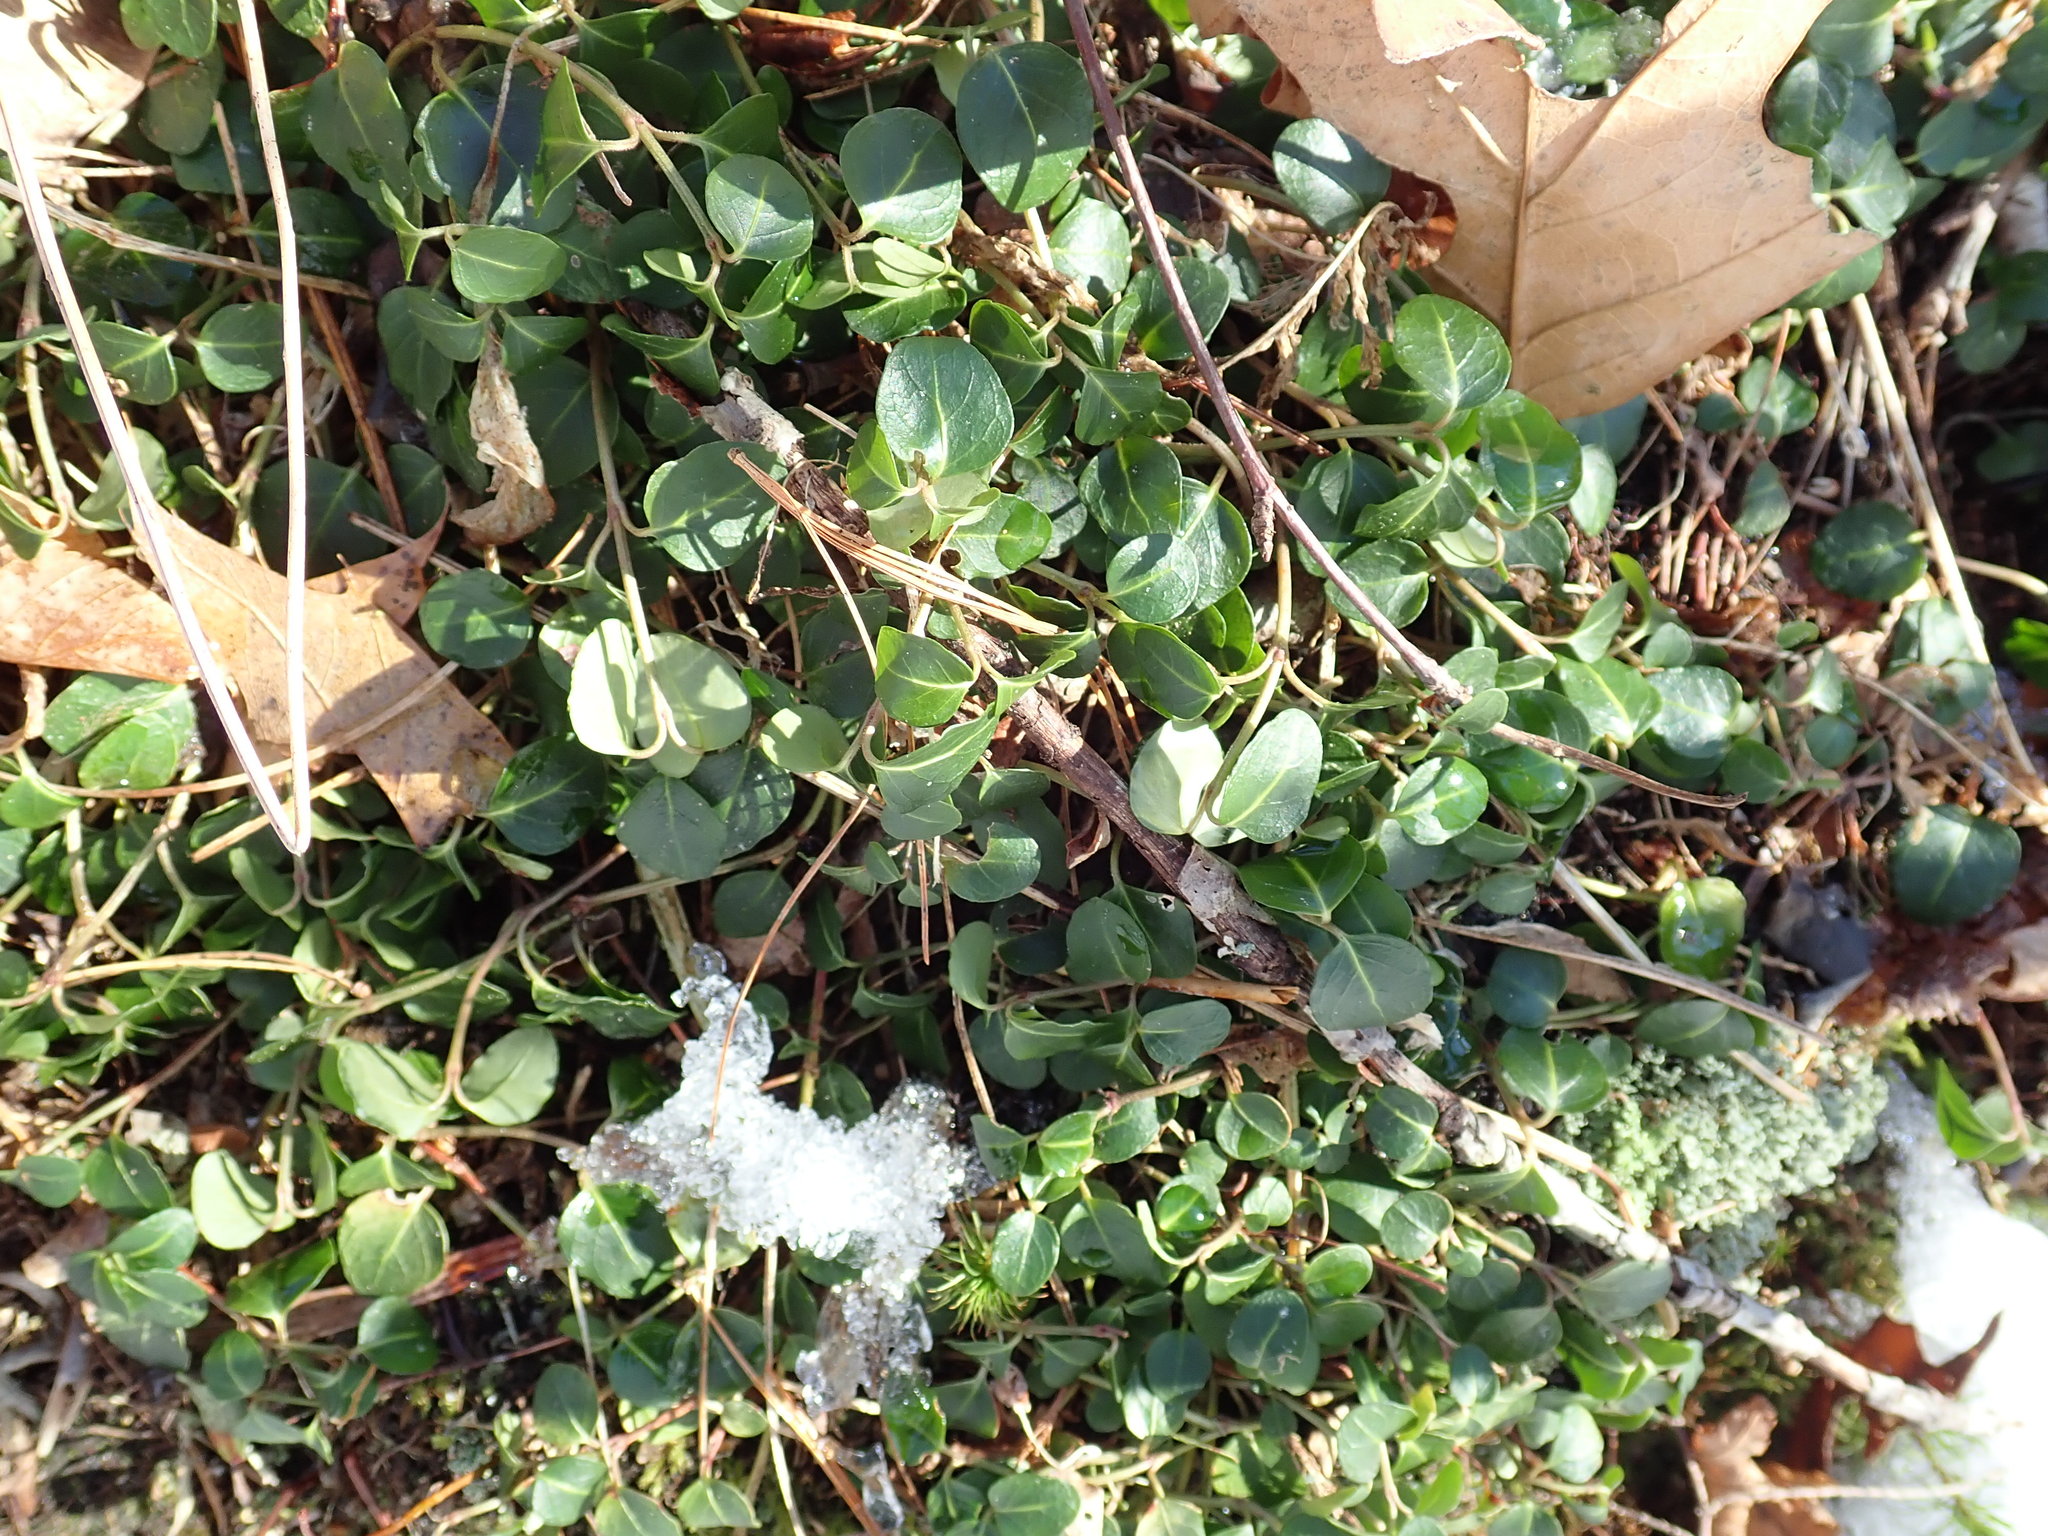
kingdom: Plantae
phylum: Tracheophyta
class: Magnoliopsida
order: Gentianales
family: Rubiaceae
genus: Mitchella
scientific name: Mitchella repens
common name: Partridge-berry
